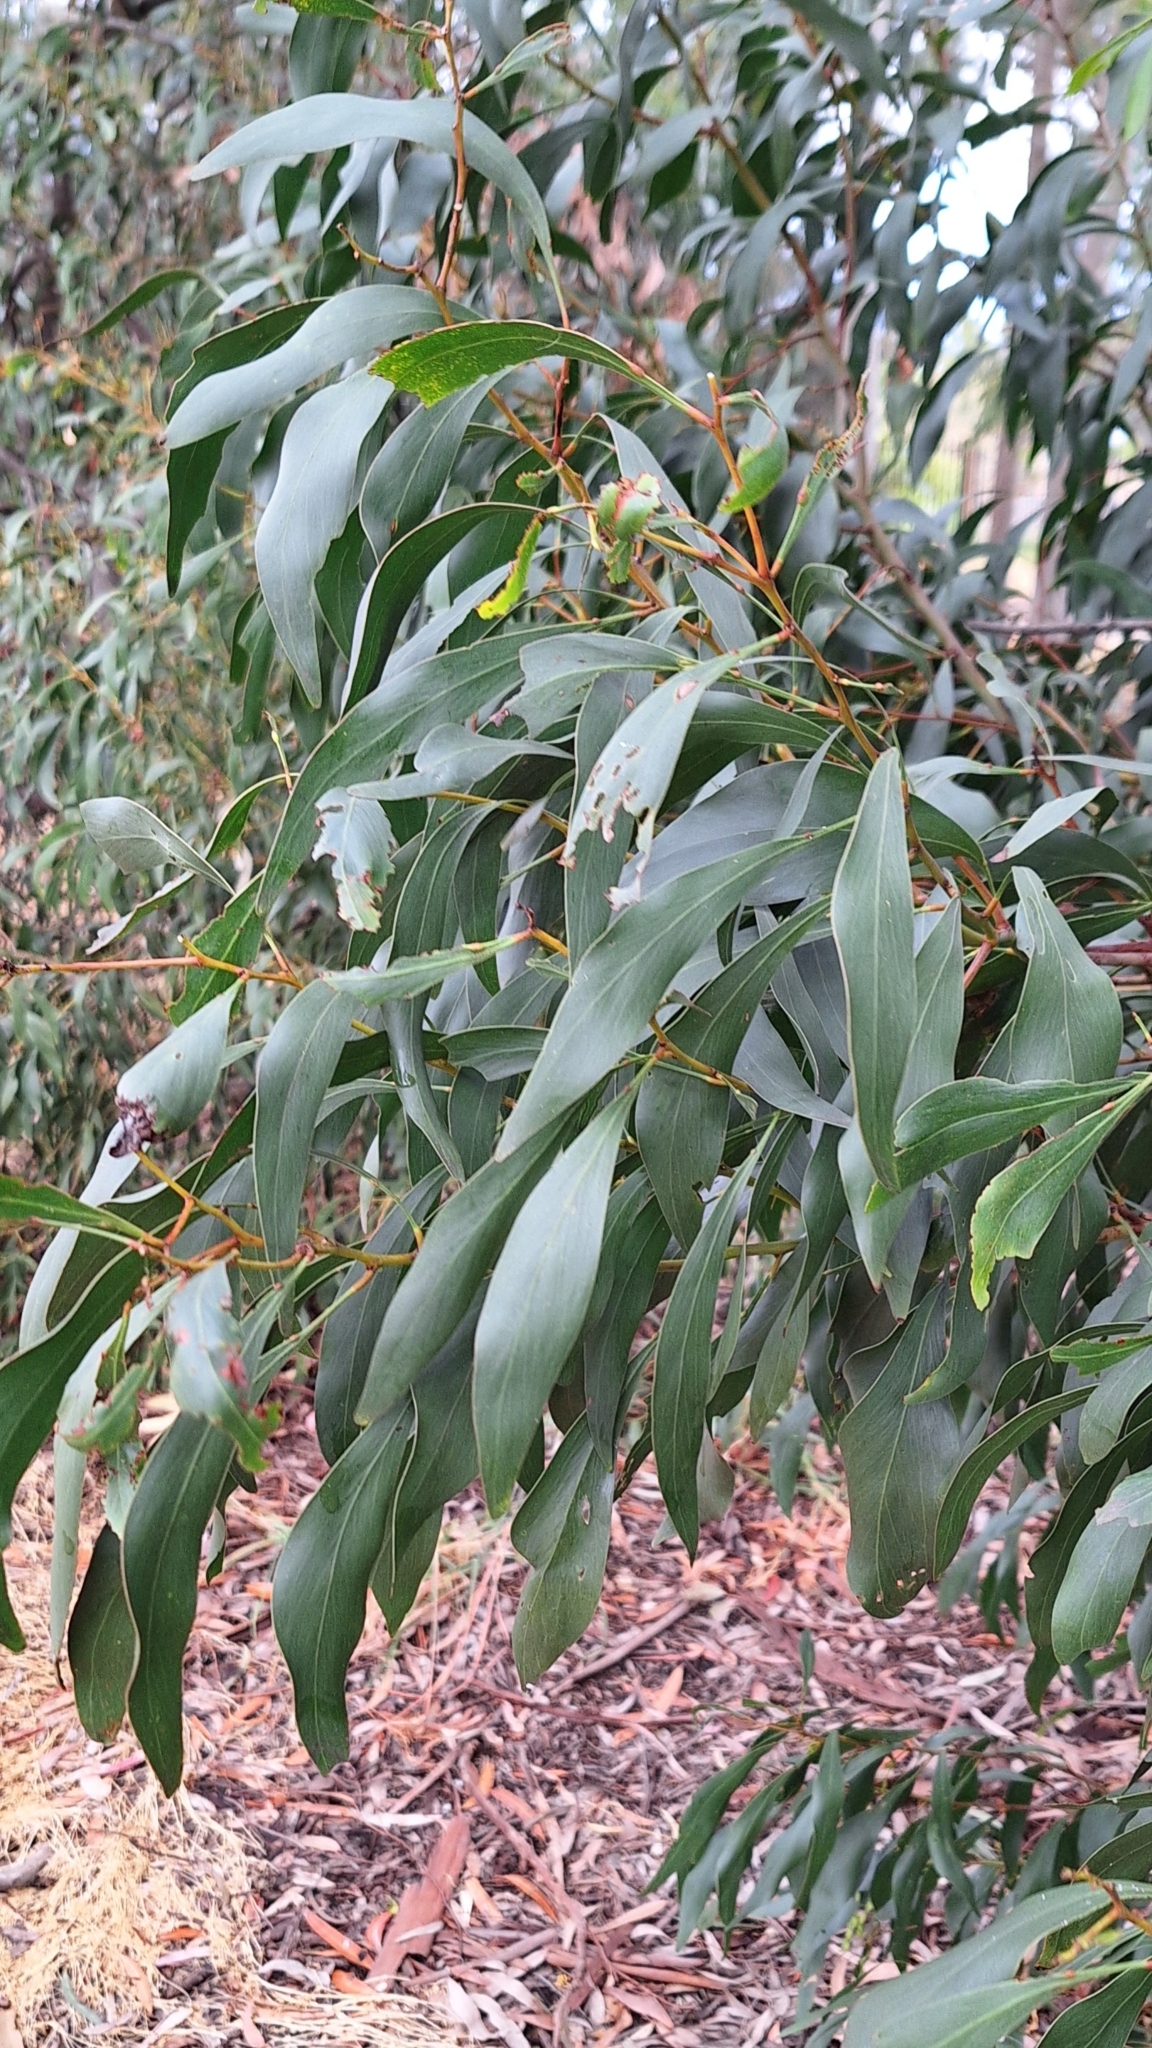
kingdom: Plantae
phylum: Tracheophyta
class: Magnoliopsida
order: Fabales
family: Fabaceae
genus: Acacia
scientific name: Acacia pycnantha
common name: Golden wattle
